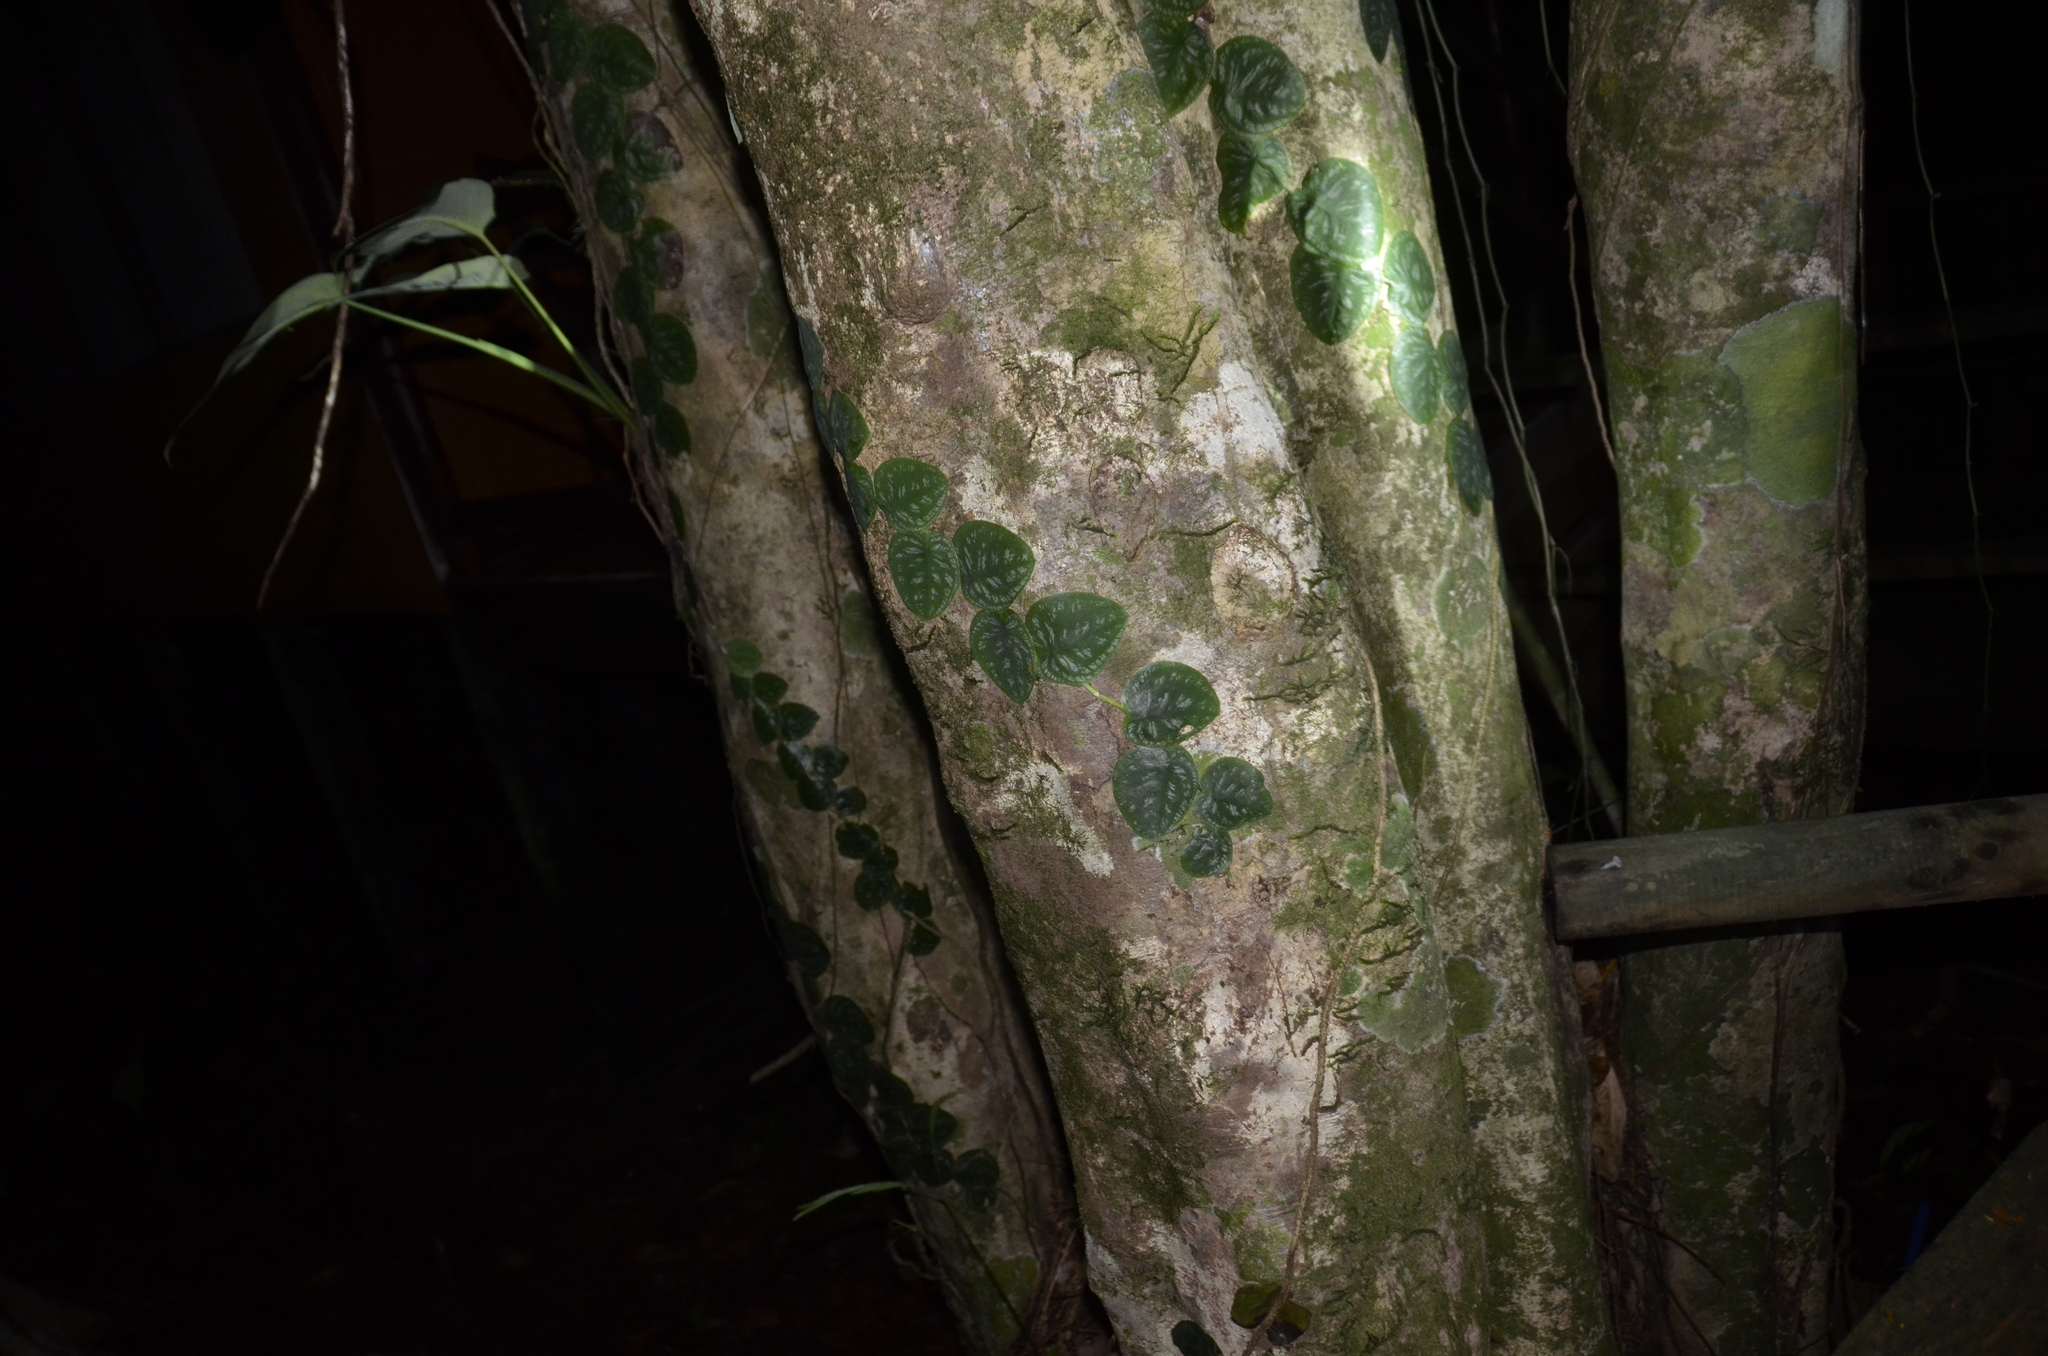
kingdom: Plantae
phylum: Tracheophyta
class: Liliopsida
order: Alismatales
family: Araceae
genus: Monstera
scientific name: Monstera tuberculata
